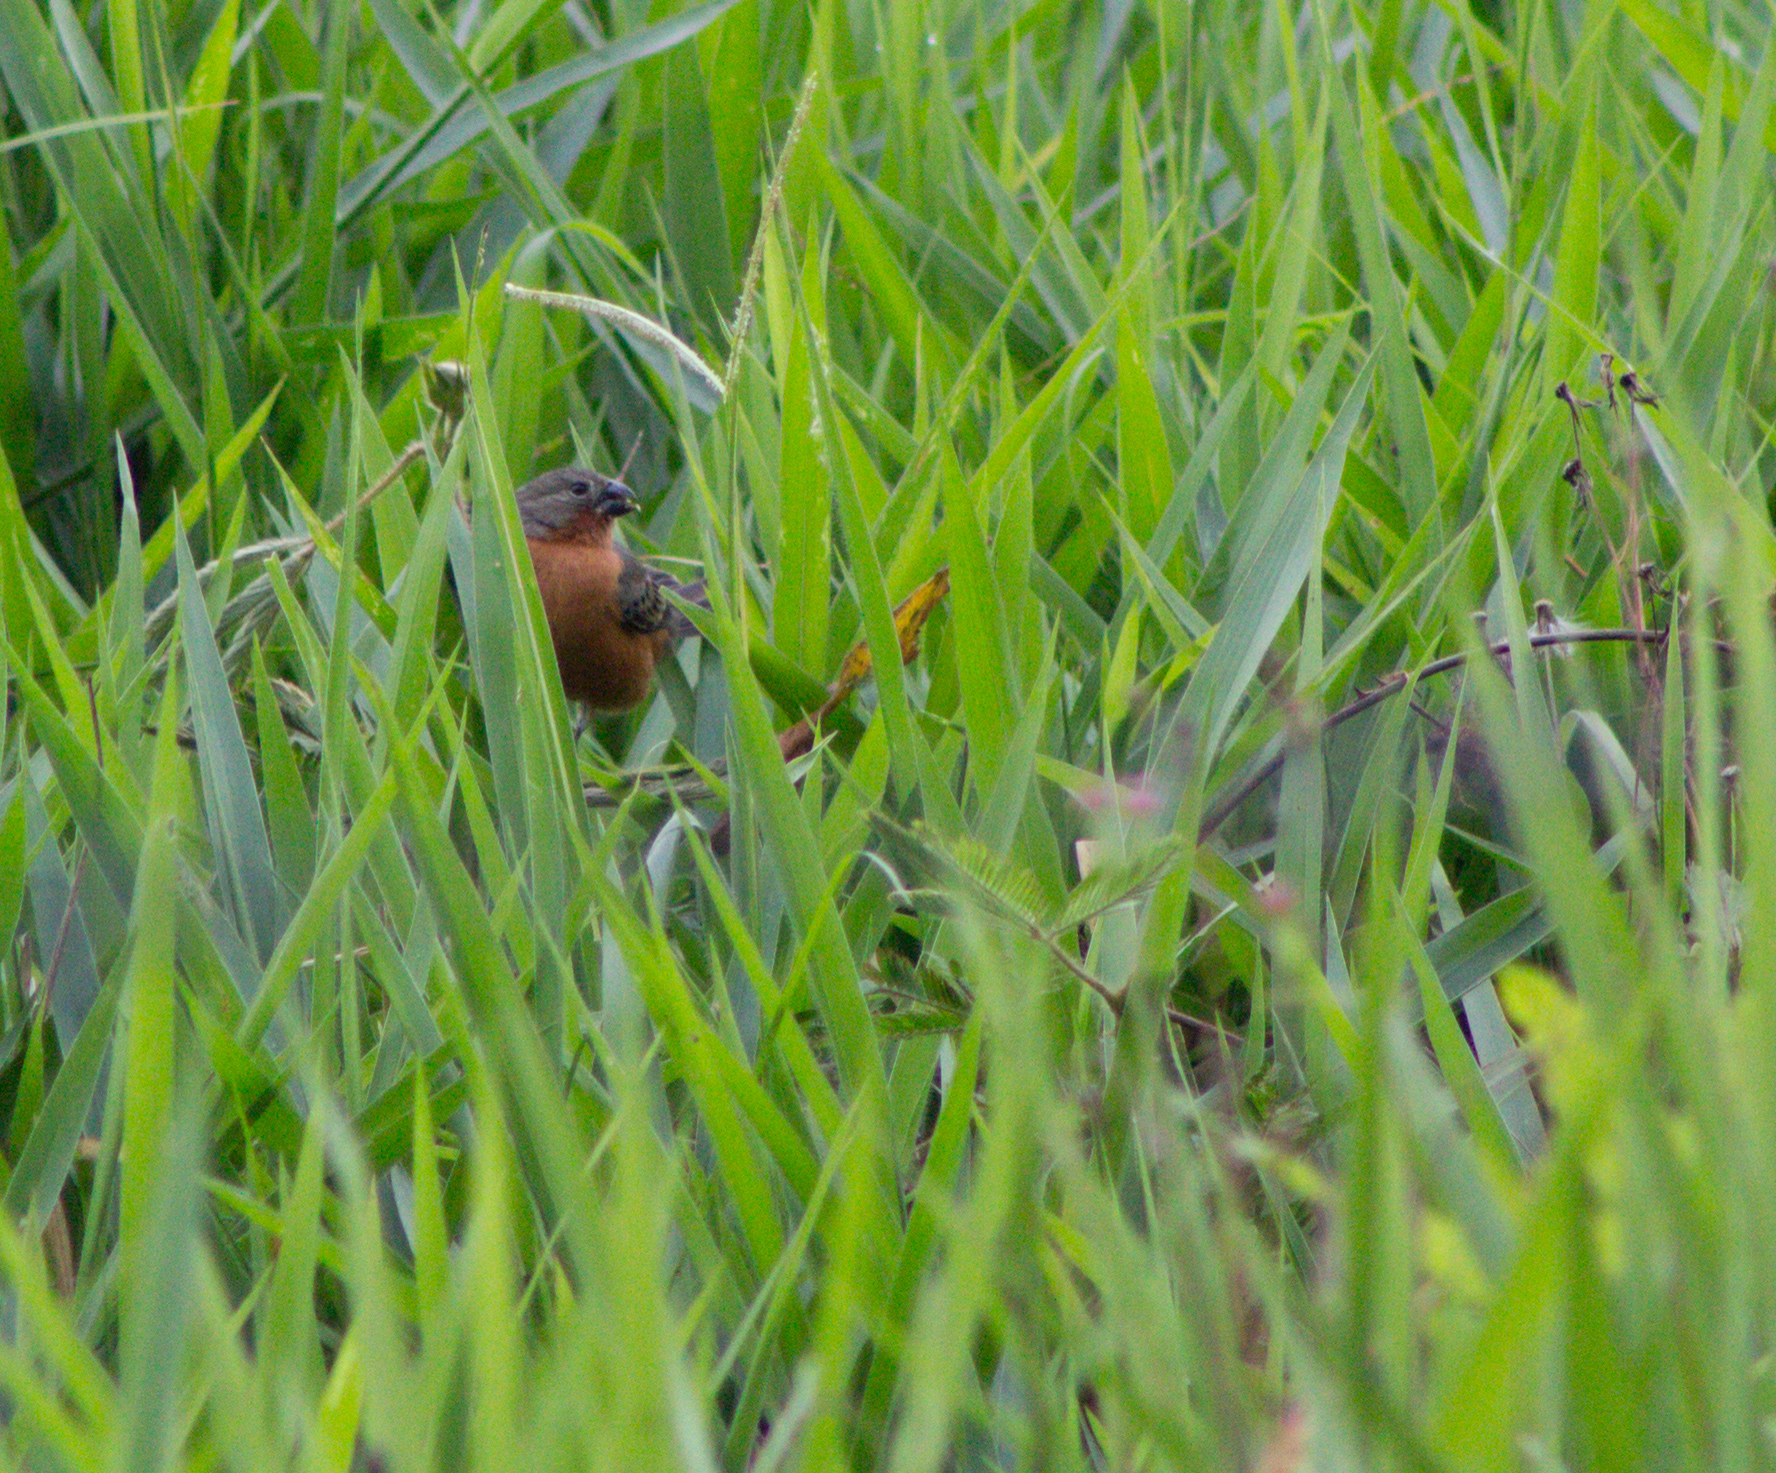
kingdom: Animalia
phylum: Chordata
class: Aves
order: Passeriformes
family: Thraupidae
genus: Sporophila
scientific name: Sporophila minuta
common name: Ruddy-breasted seedeater
